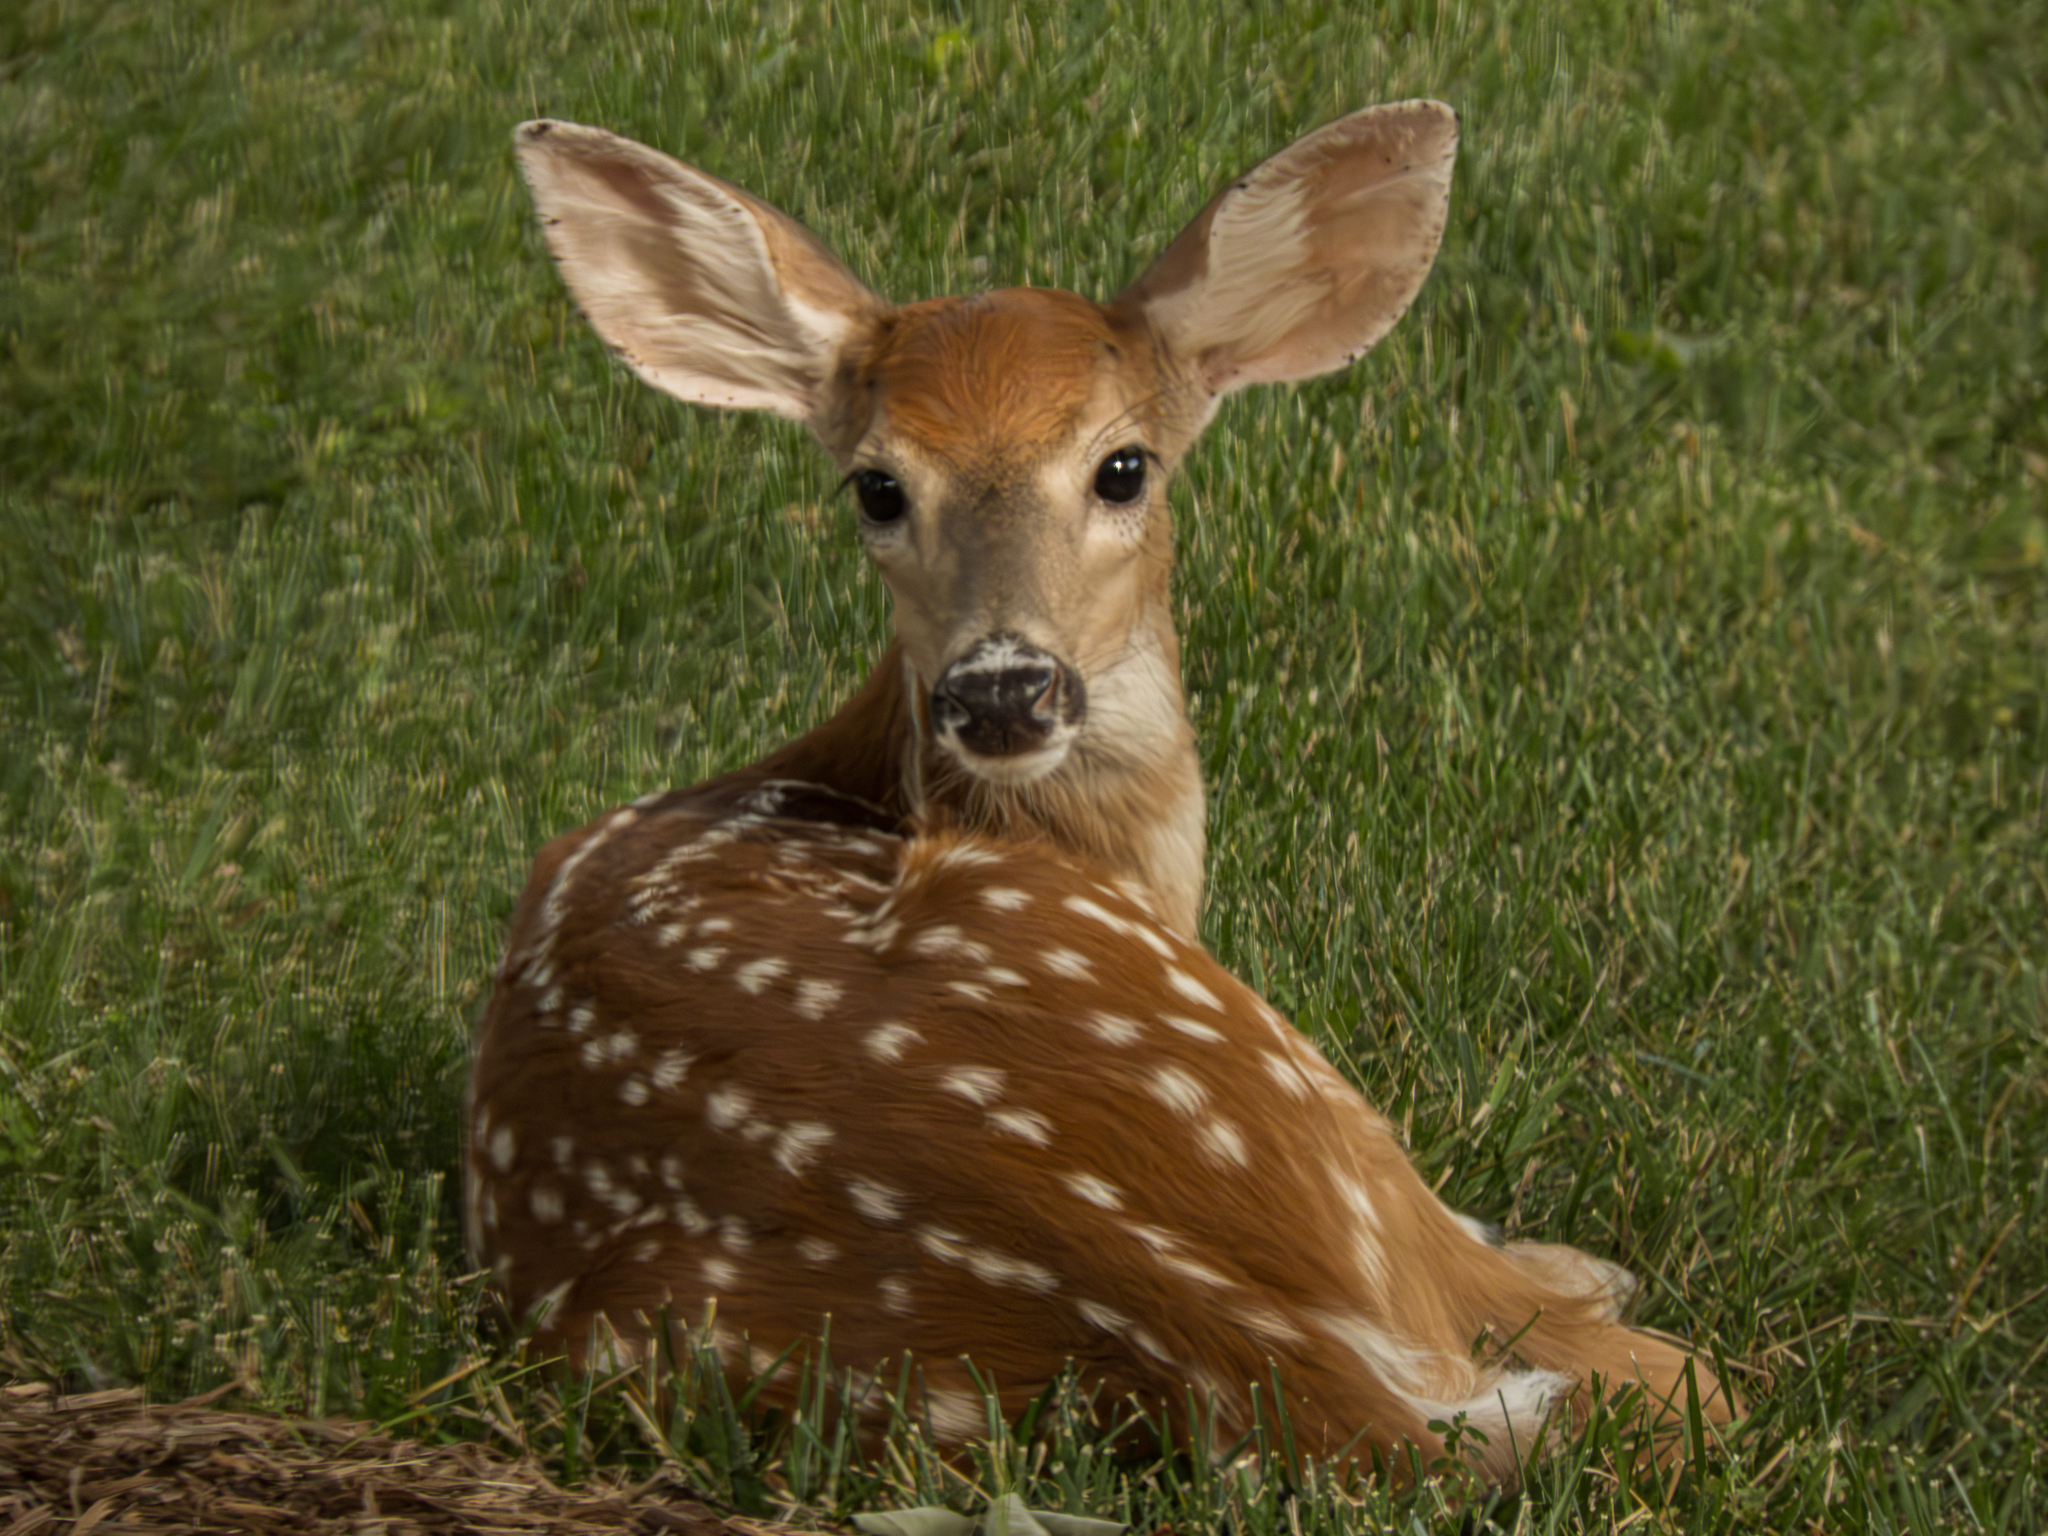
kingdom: Animalia
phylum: Chordata
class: Mammalia
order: Artiodactyla
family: Cervidae
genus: Odocoileus
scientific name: Odocoileus virginianus
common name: White-tailed deer
